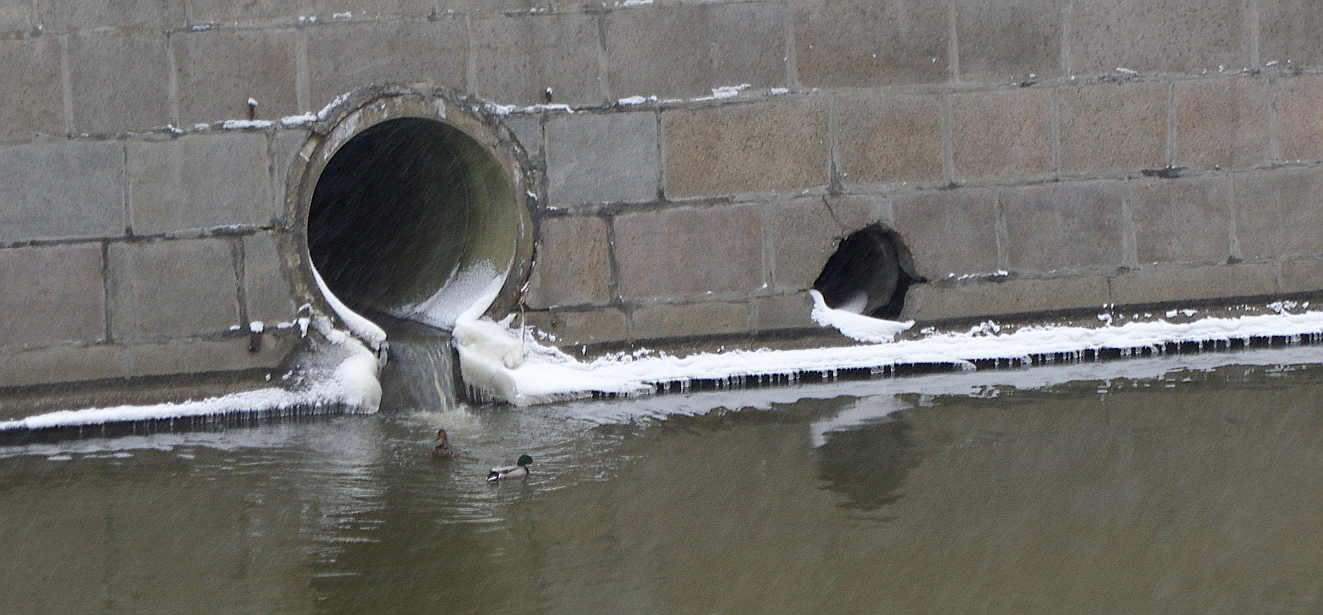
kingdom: Animalia
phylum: Chordata
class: Aves
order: Anseriformes
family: Anatidae
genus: Anas
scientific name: Anas platyrhynchos
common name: Mallard
